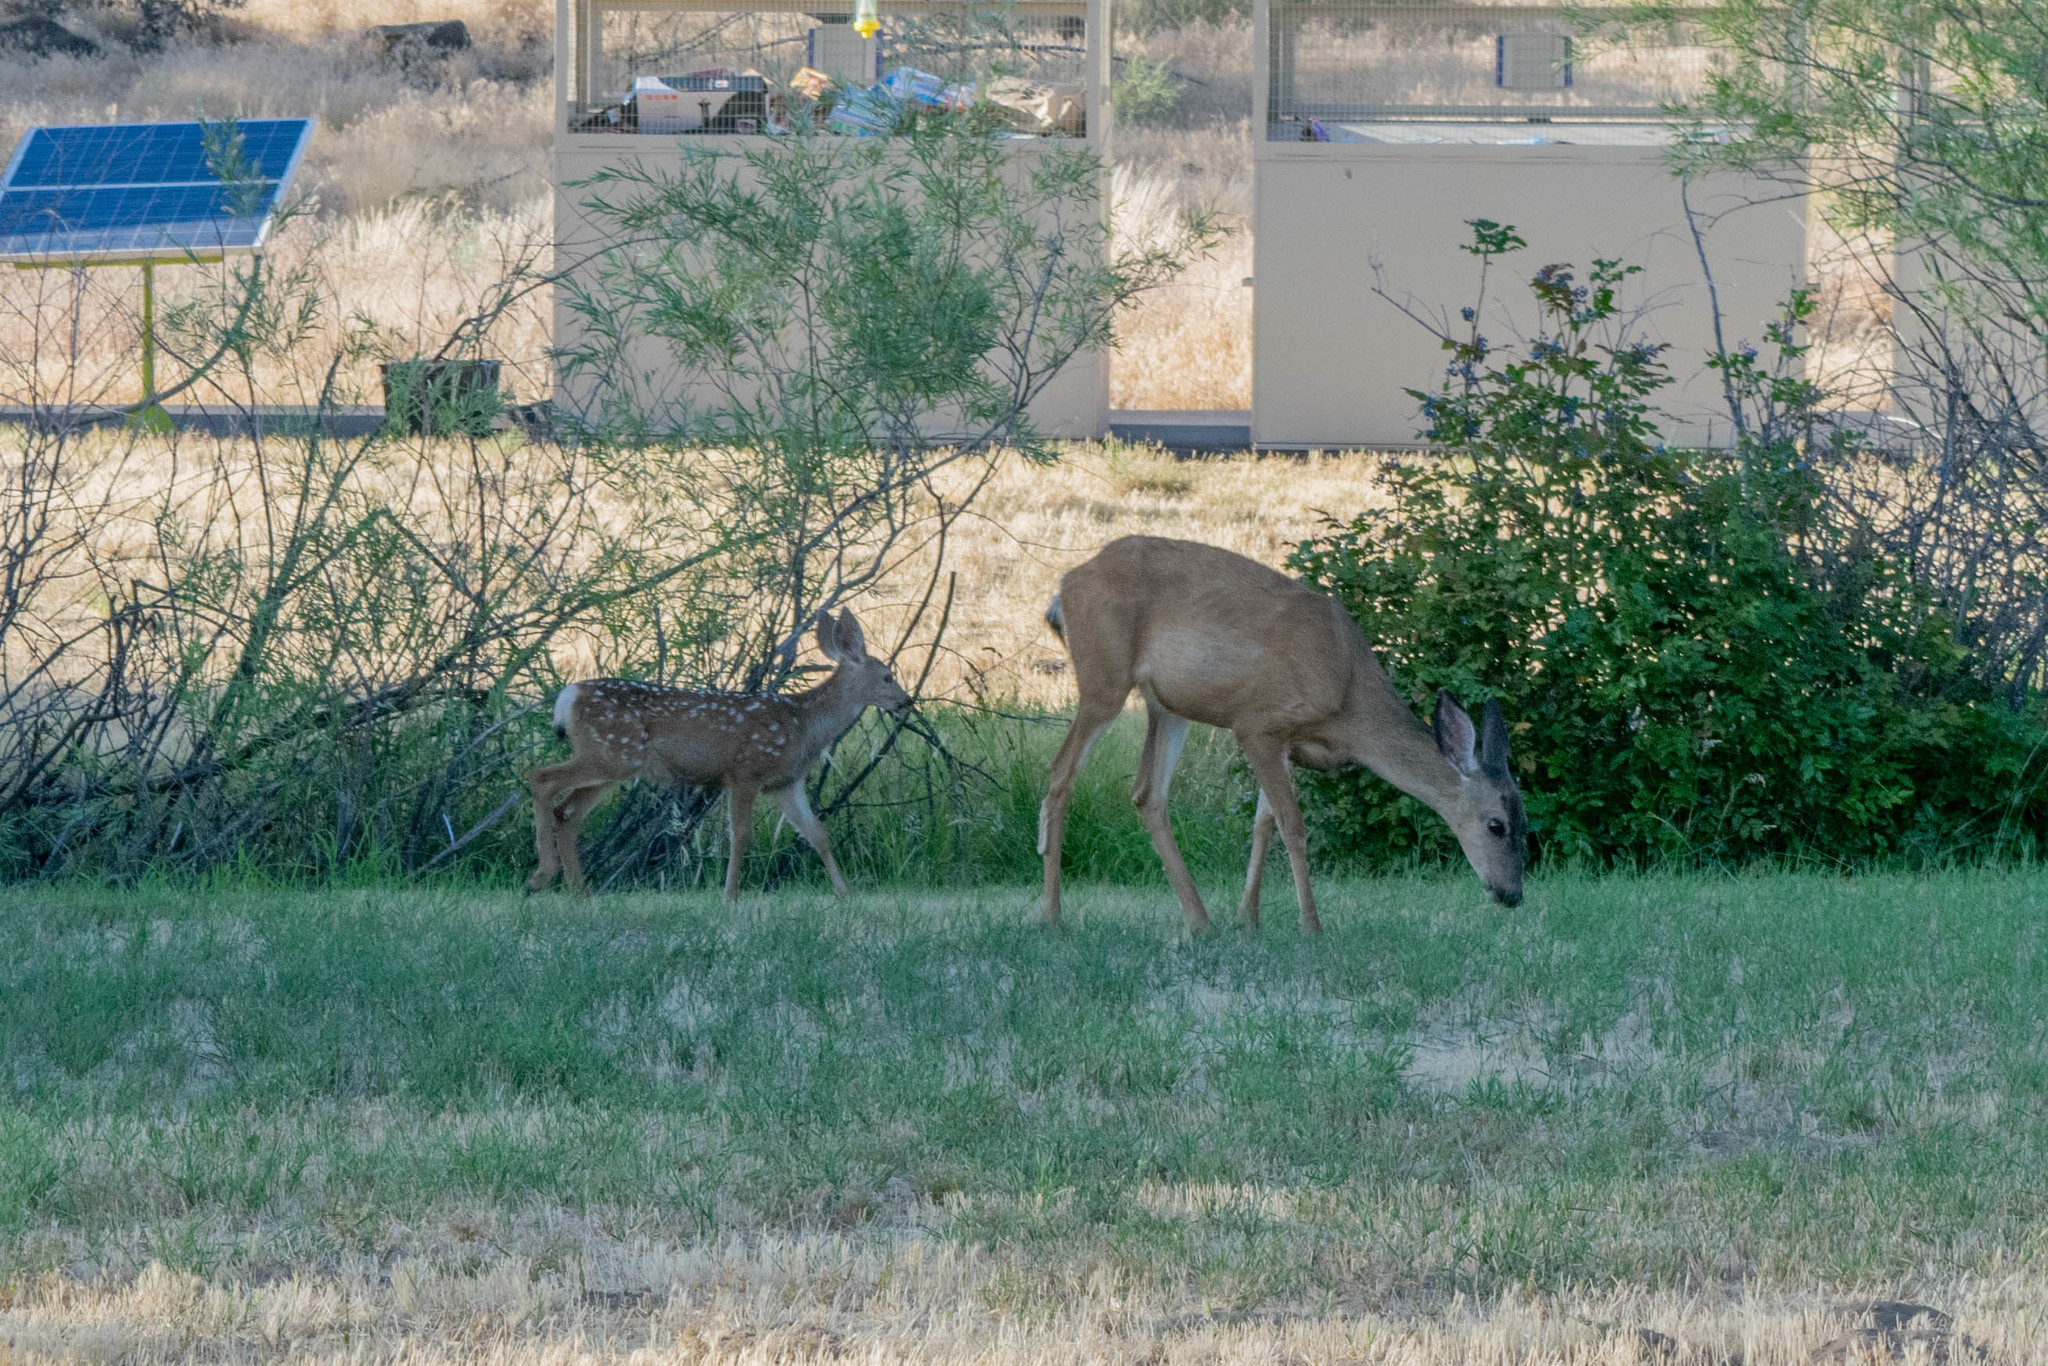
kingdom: Animalia
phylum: Chordata
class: Mammalia
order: Artiodactyla
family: Cervidae
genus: Odocoileus
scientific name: Odocoileus hemionus
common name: Mule deer
